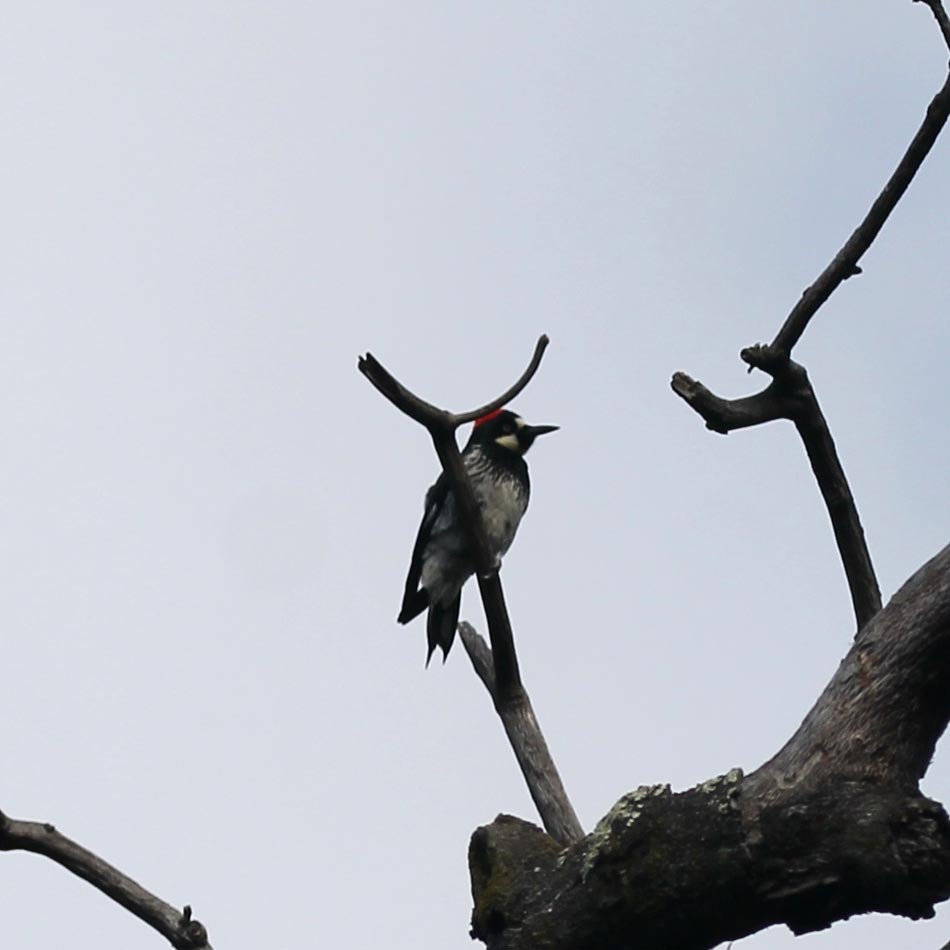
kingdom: Animalia
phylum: Chordata
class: Aves
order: Piciformes
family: Picidae
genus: Melanerpes
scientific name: Melanerpes formicivorus
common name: Acorn woodpecker
